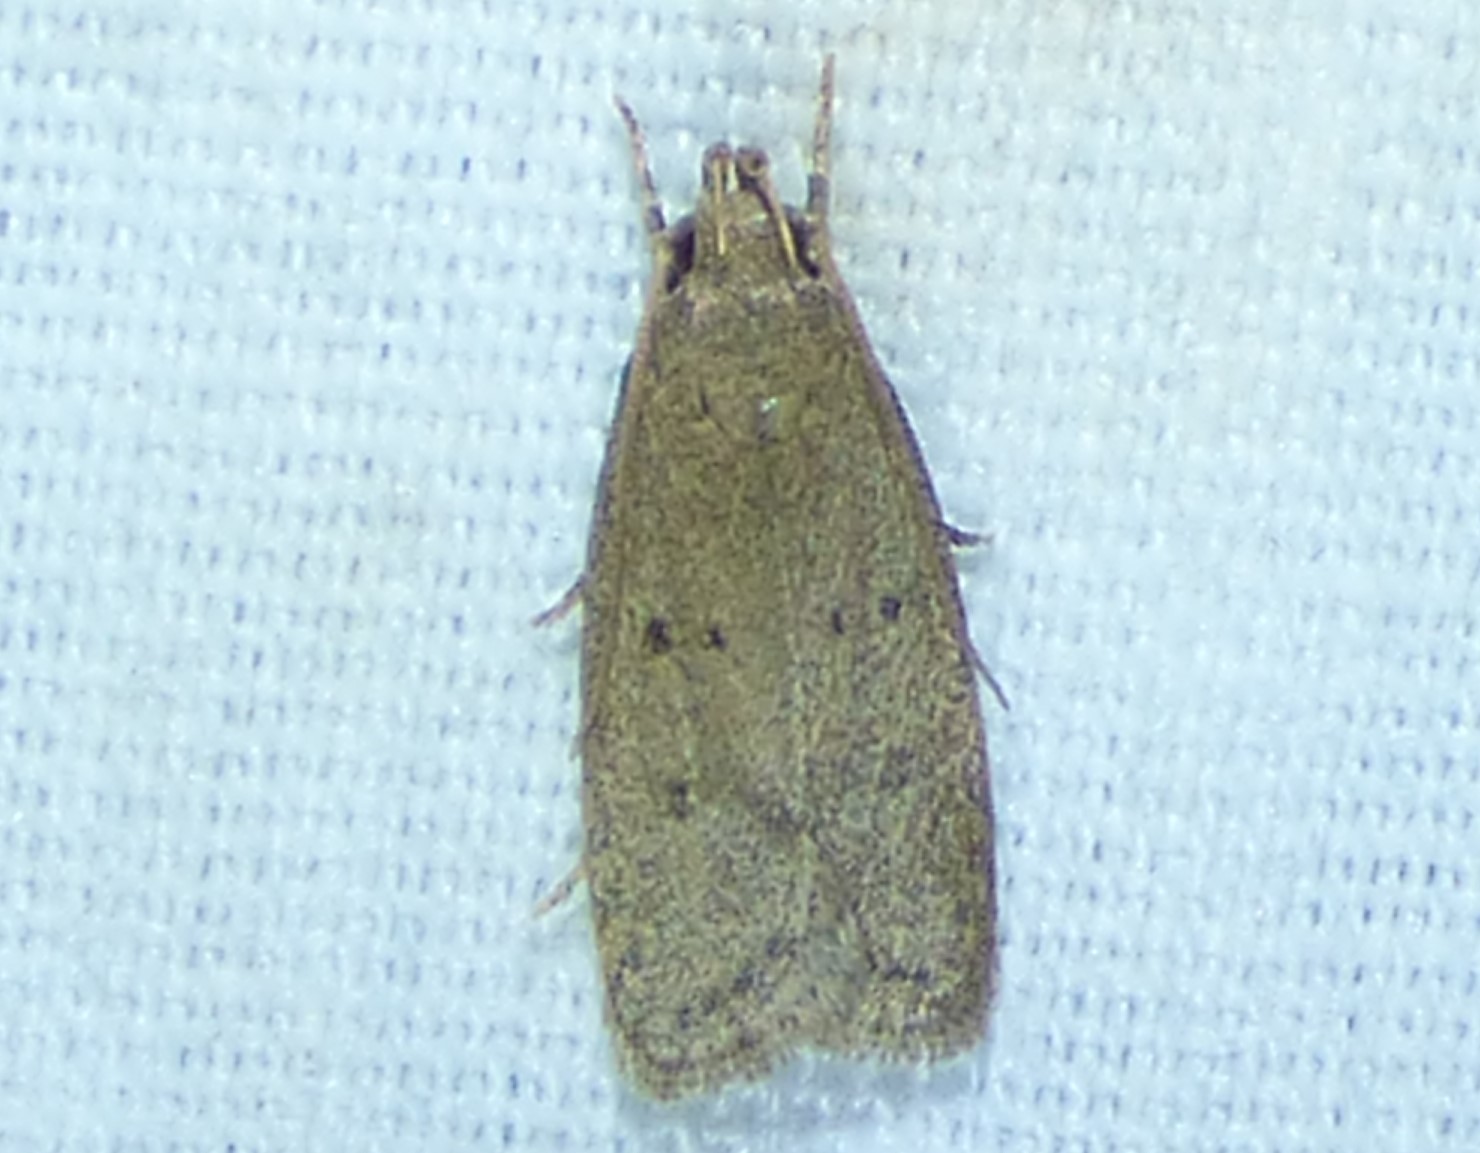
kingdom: Animalia
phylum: Arthropoda
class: Insecta
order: Lepidoptera
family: Autostichidae
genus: Autosticha
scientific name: Autosticha kyotensis
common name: Kyoto moth
